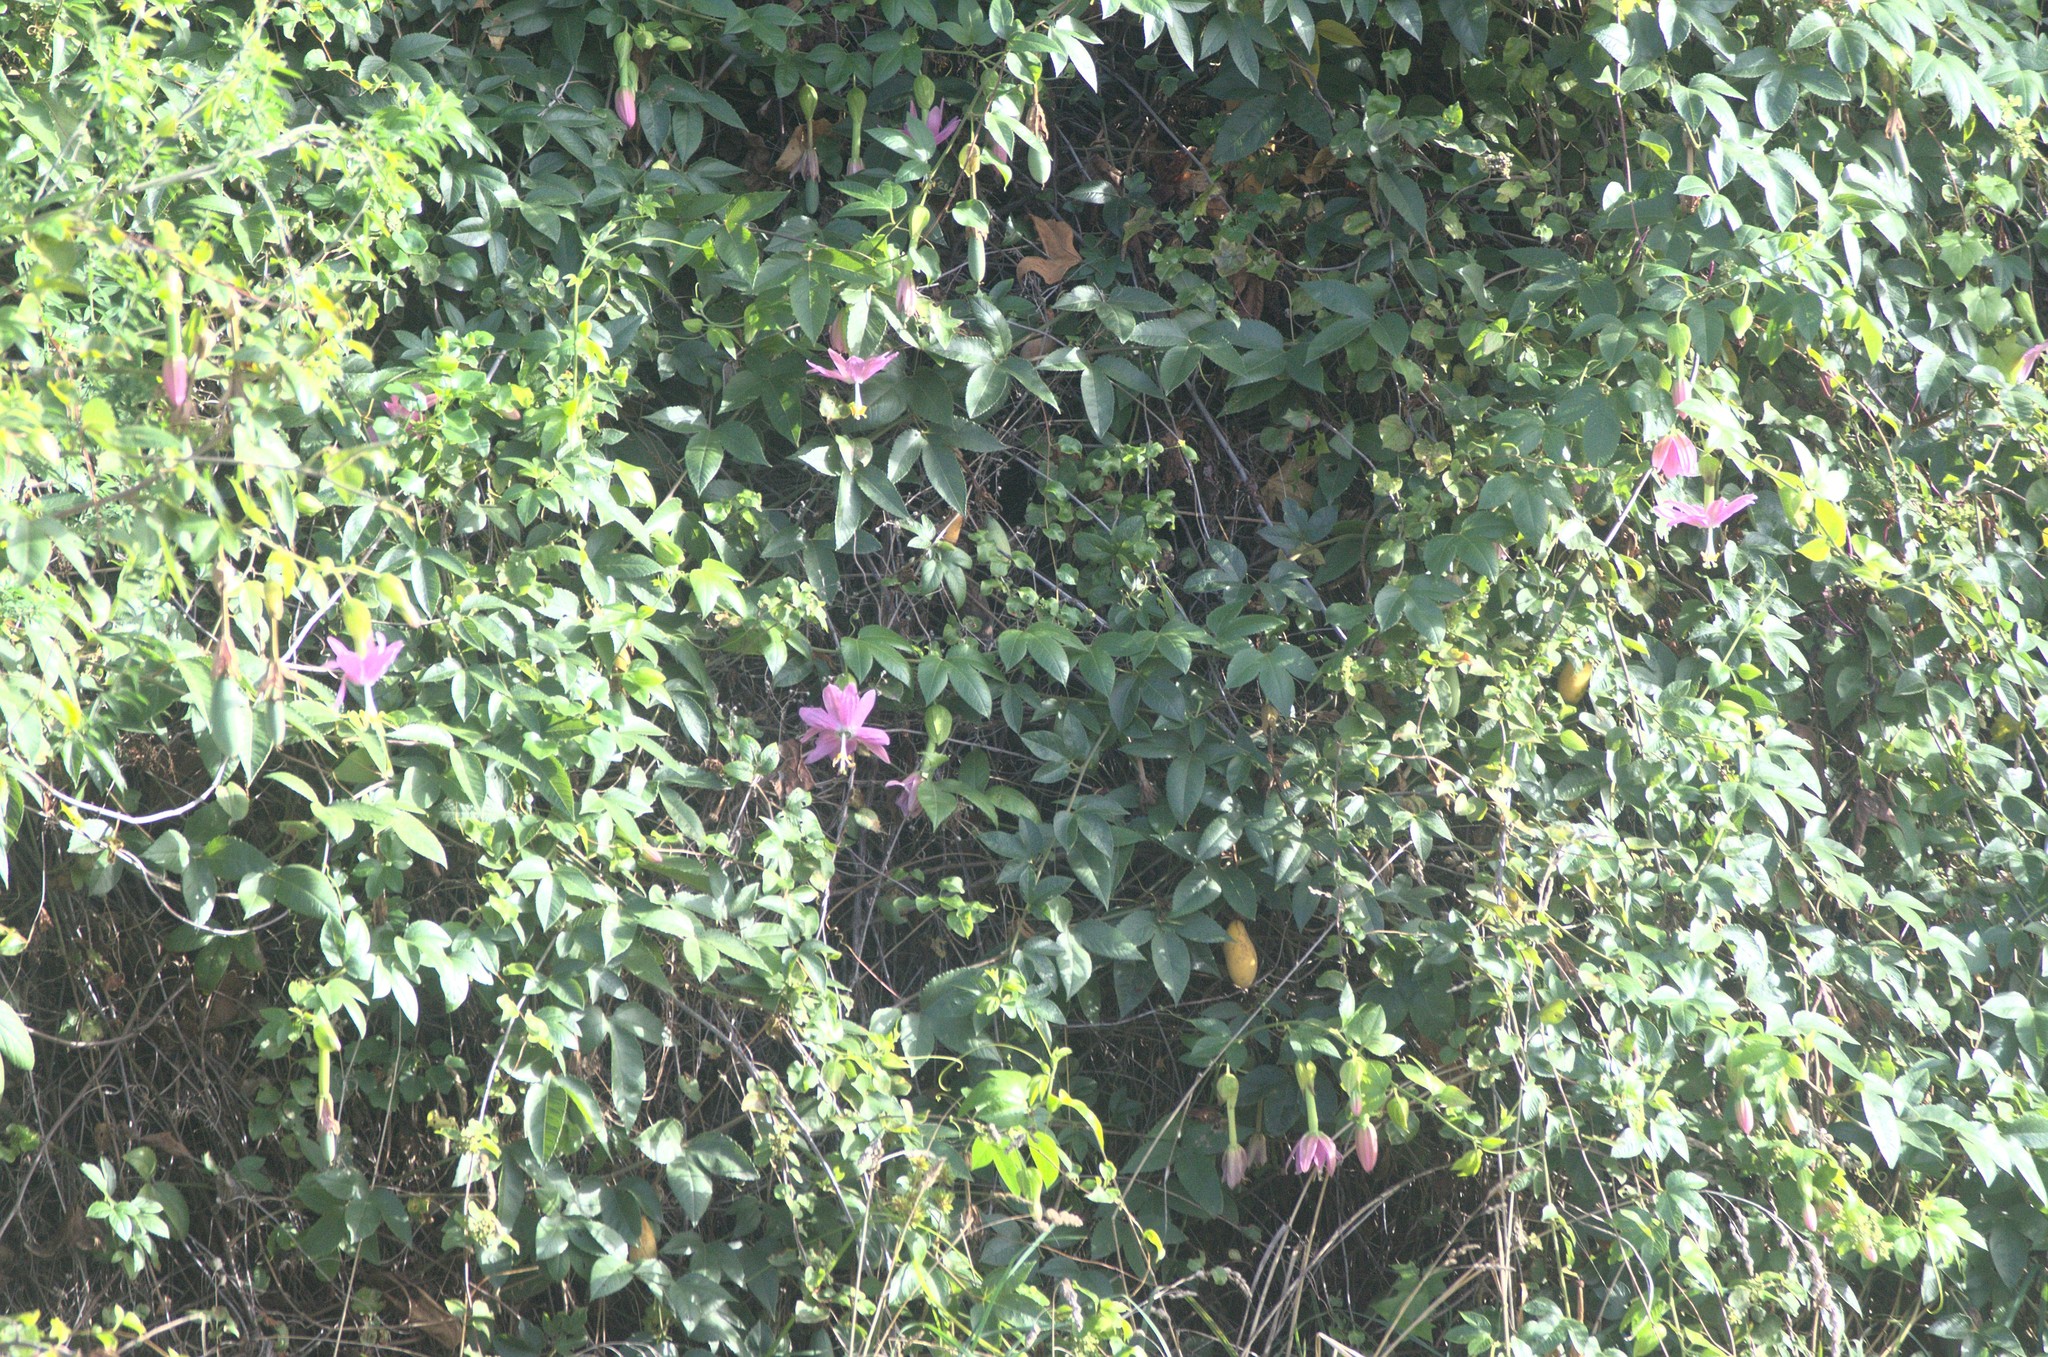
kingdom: Plantae
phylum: Tracheophyta
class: Magnoliopsida
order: Malpighiales
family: Passifloraceae
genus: Passiflora
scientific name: Passiflora tarminiana
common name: Banana poka
